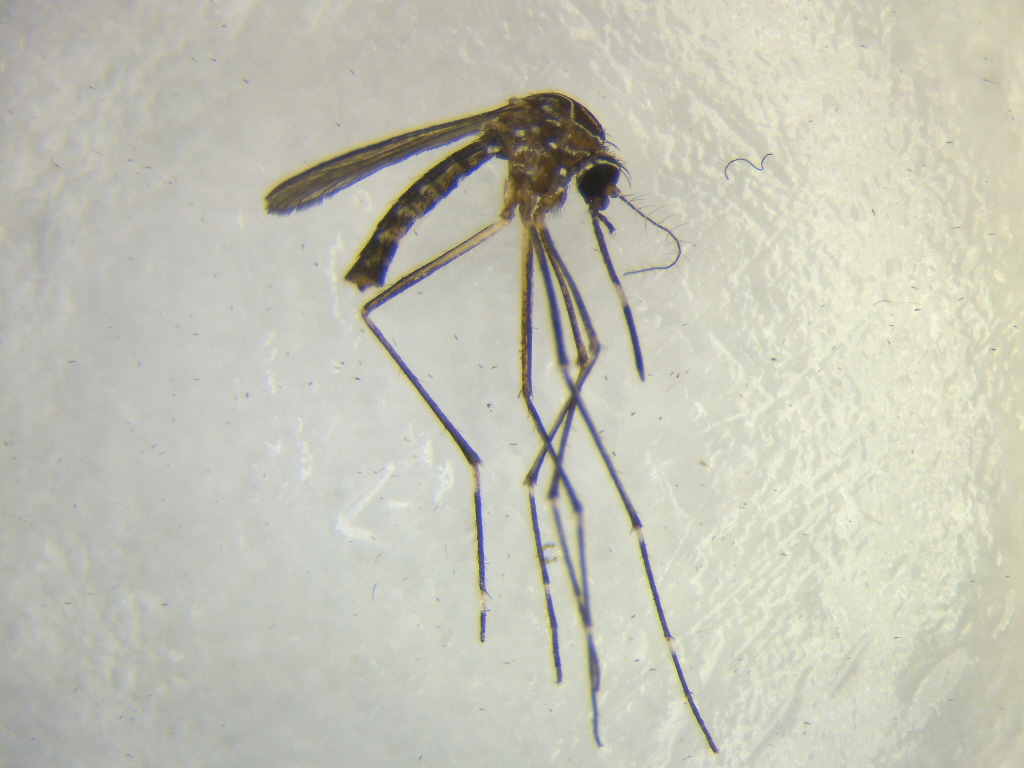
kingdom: Animalia
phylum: Arthropoda
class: Insecta
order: Diptera
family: Culicidae
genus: Aedes
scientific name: Aedes notoscriptus
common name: Australian backyard mosquito
